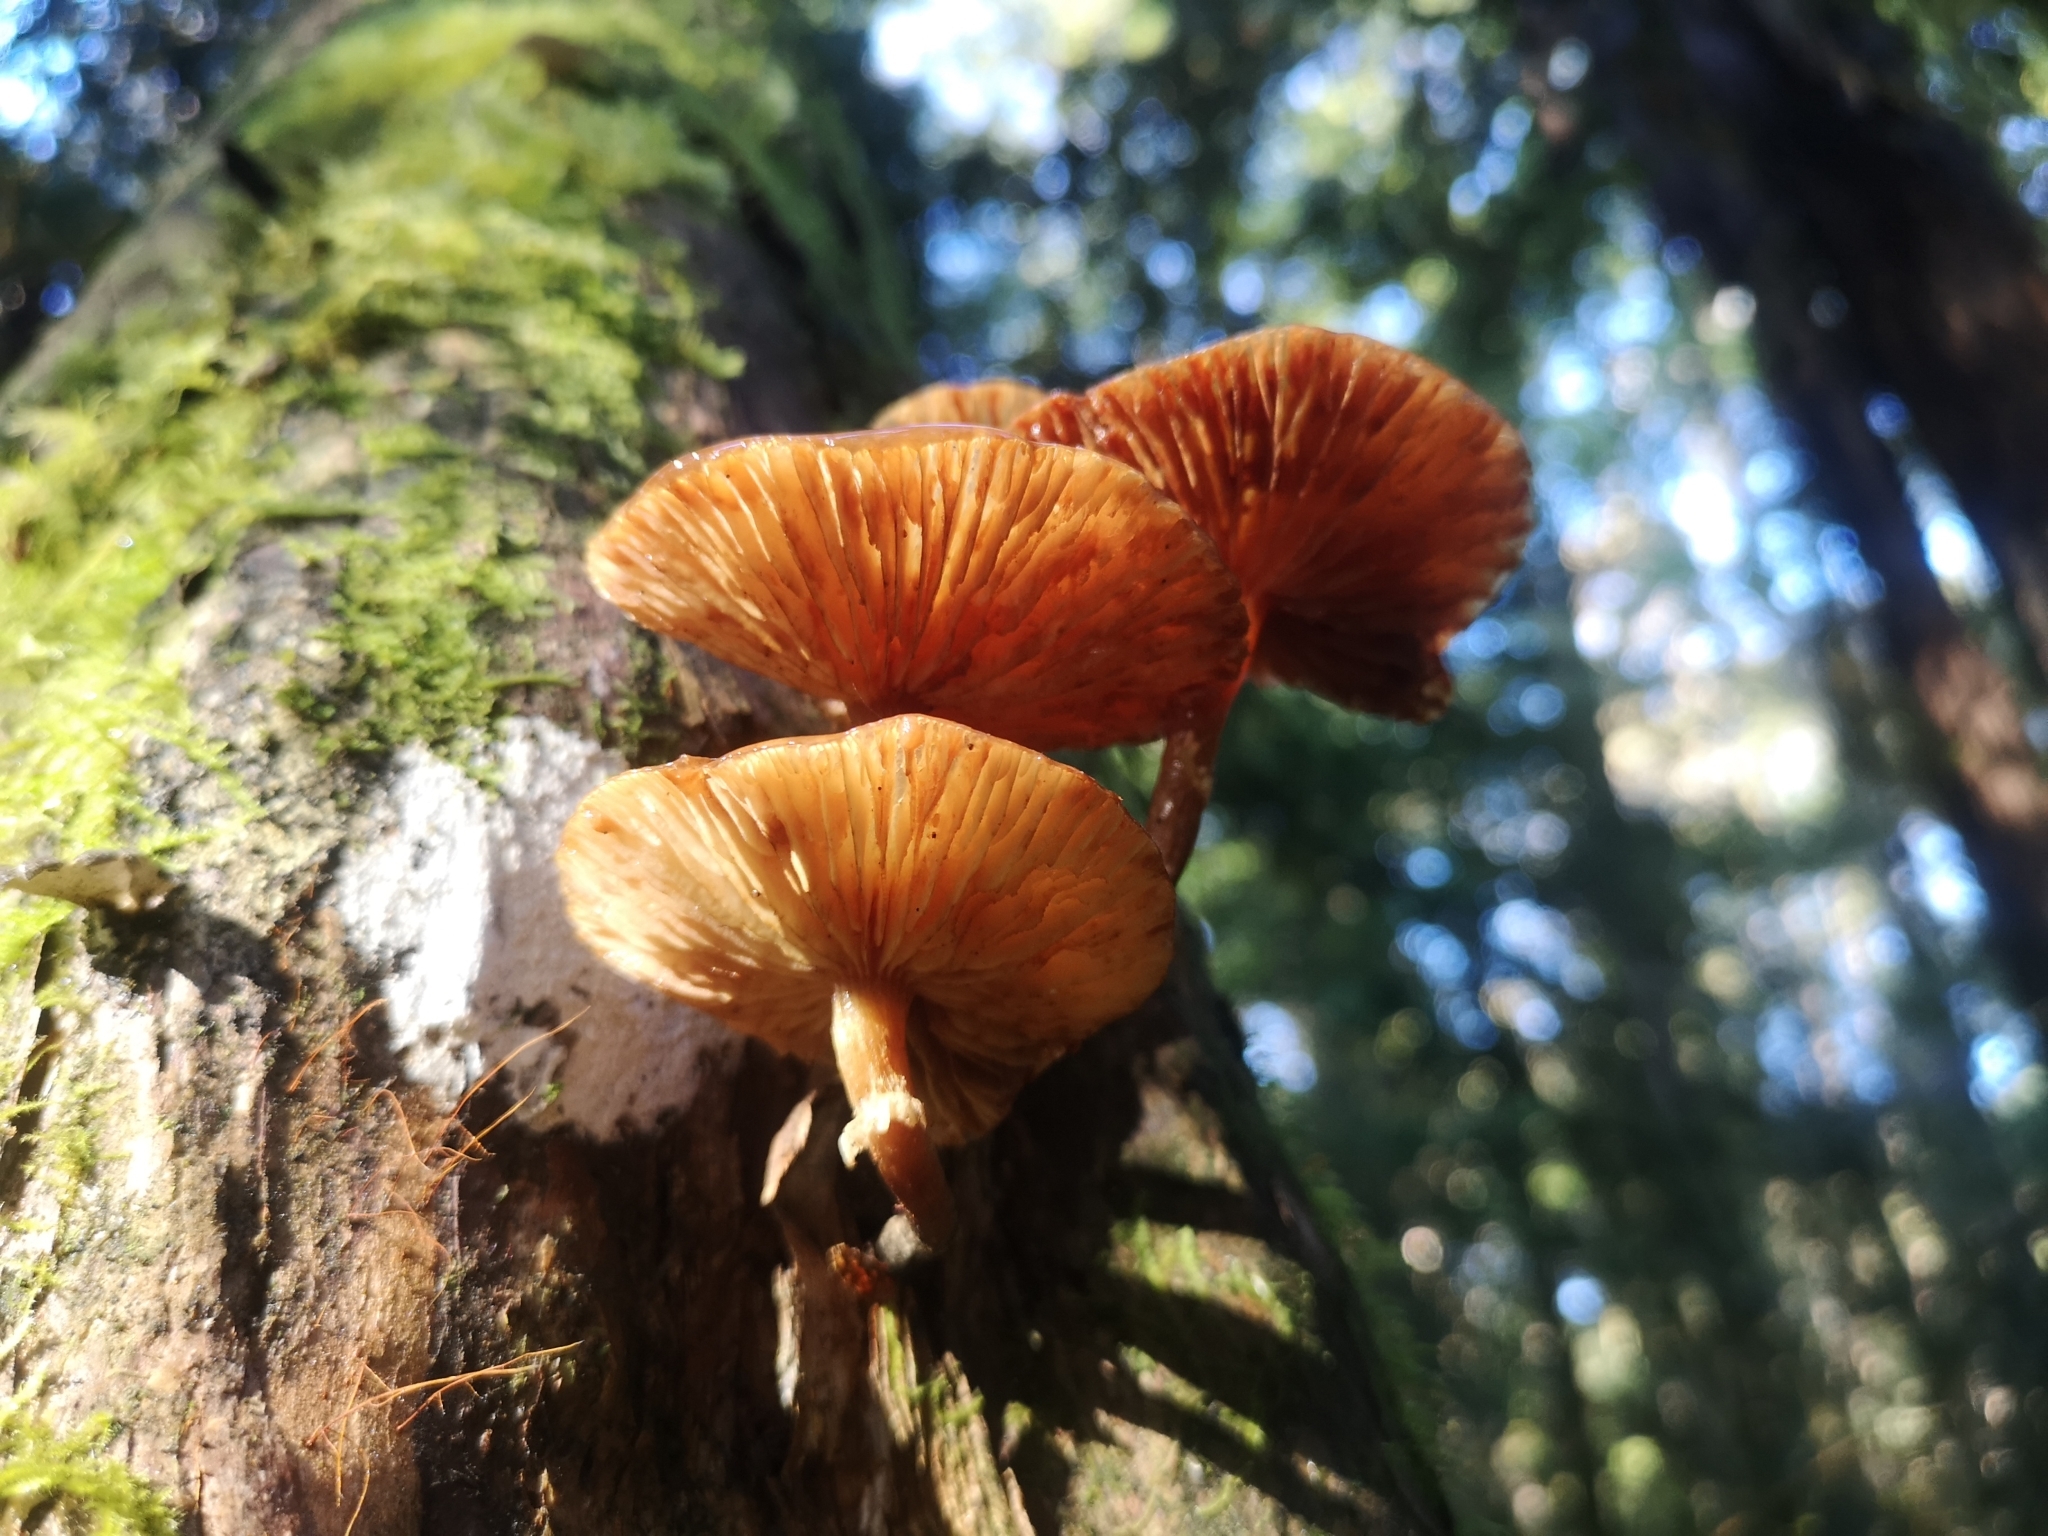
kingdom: Fungi
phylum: Basidiomycota
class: Agaricomycetes
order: Agaricales
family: Physalacriaceae
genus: Armillaria
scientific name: Armillaria novae-zelandiae
